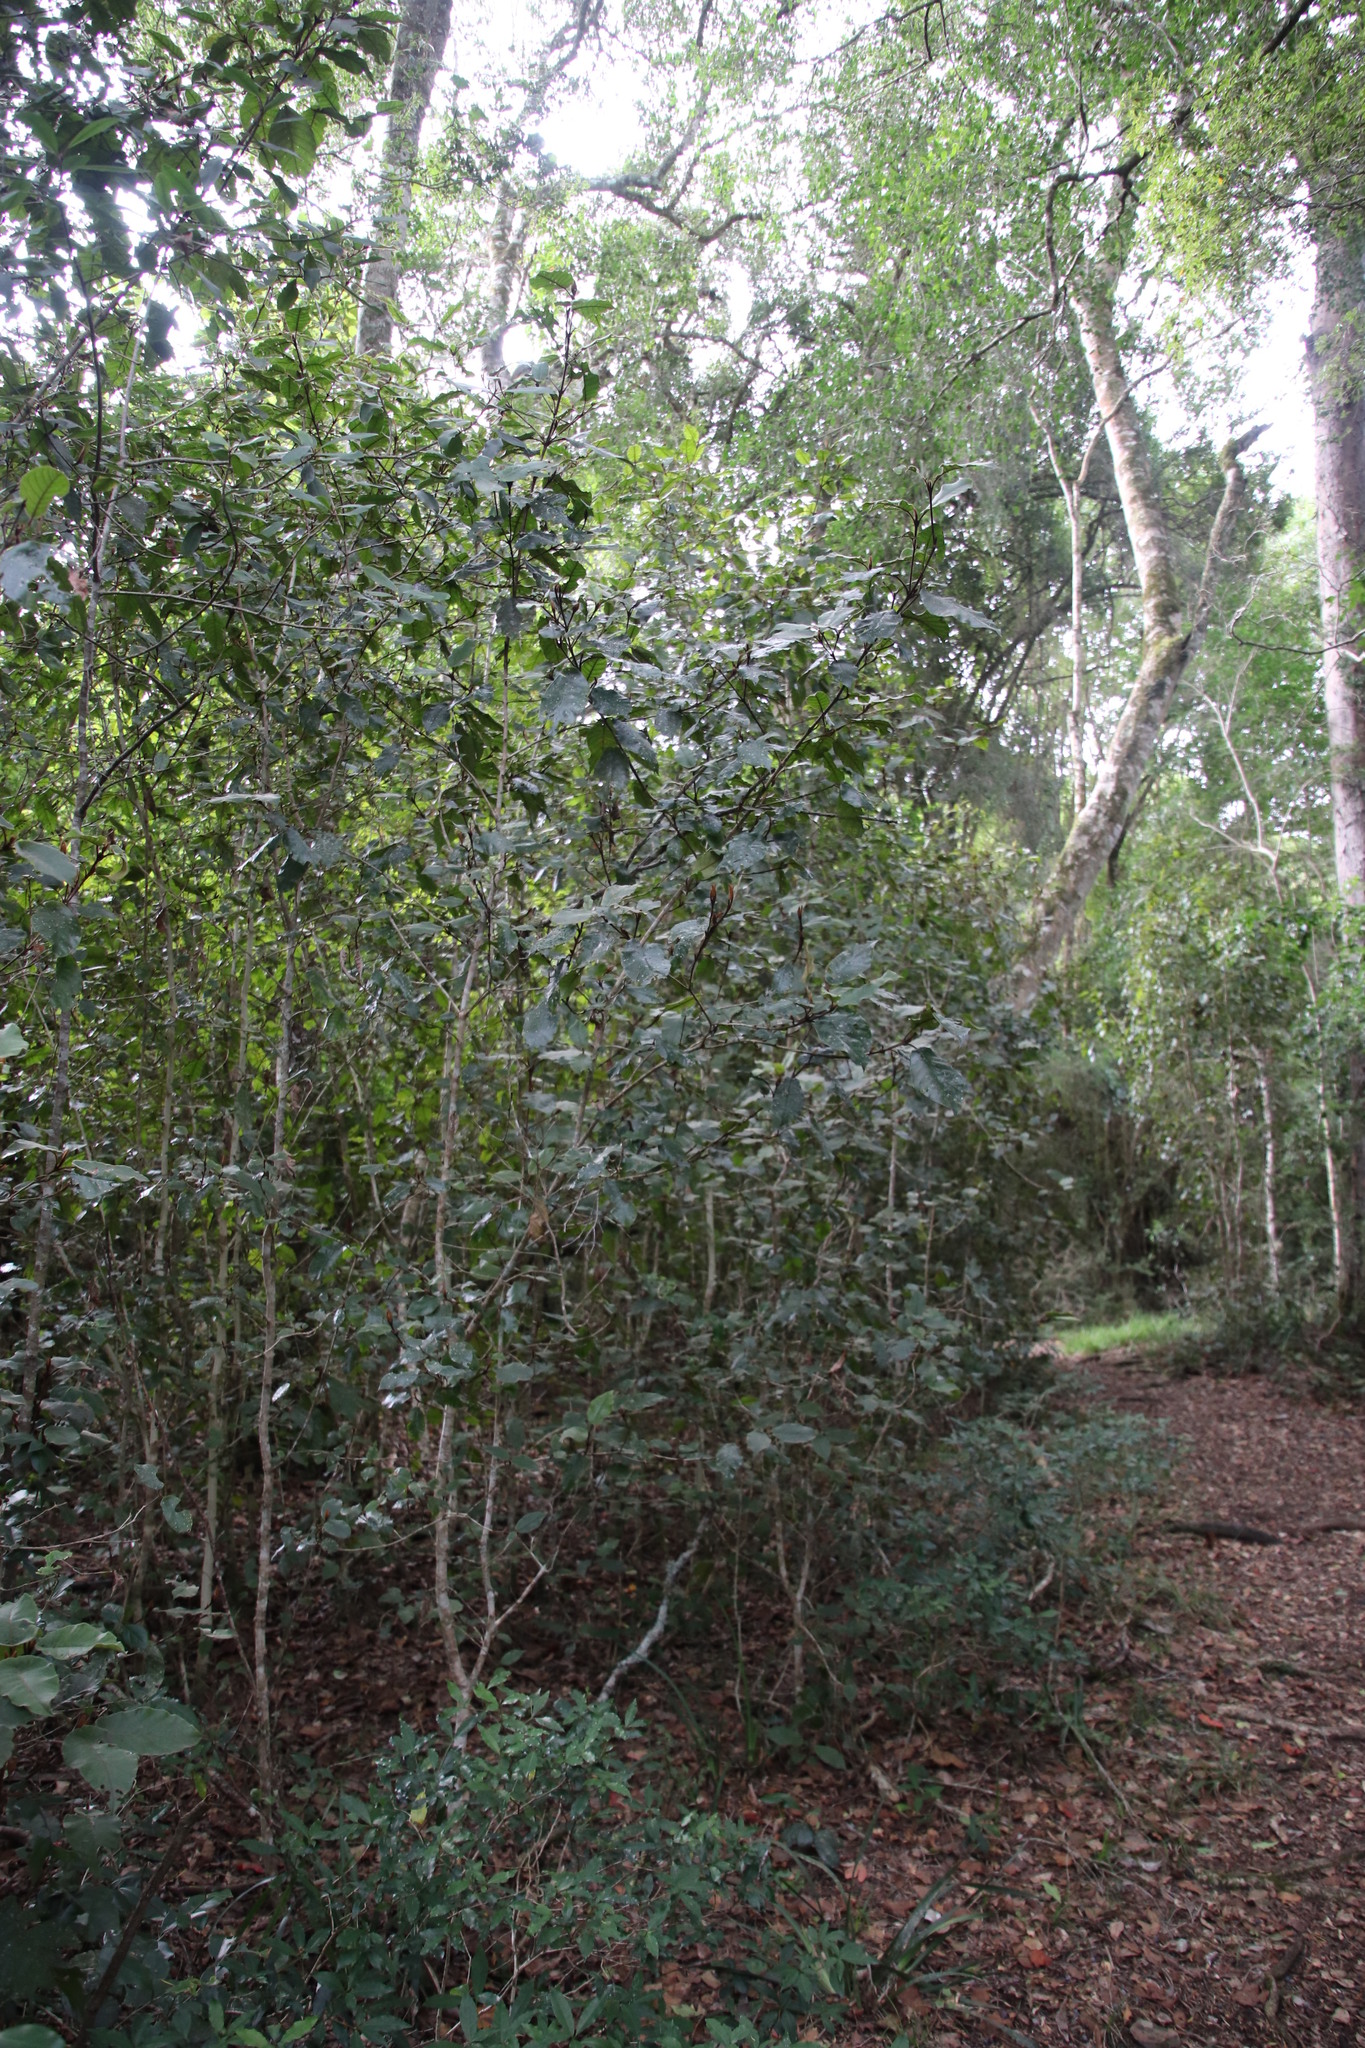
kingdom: Plantae
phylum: Tracheophyta
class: Magnoliopsida
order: Saxifragales
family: Hamamelidaceae
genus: Trichocladus
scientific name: Trichocladus crinitus
